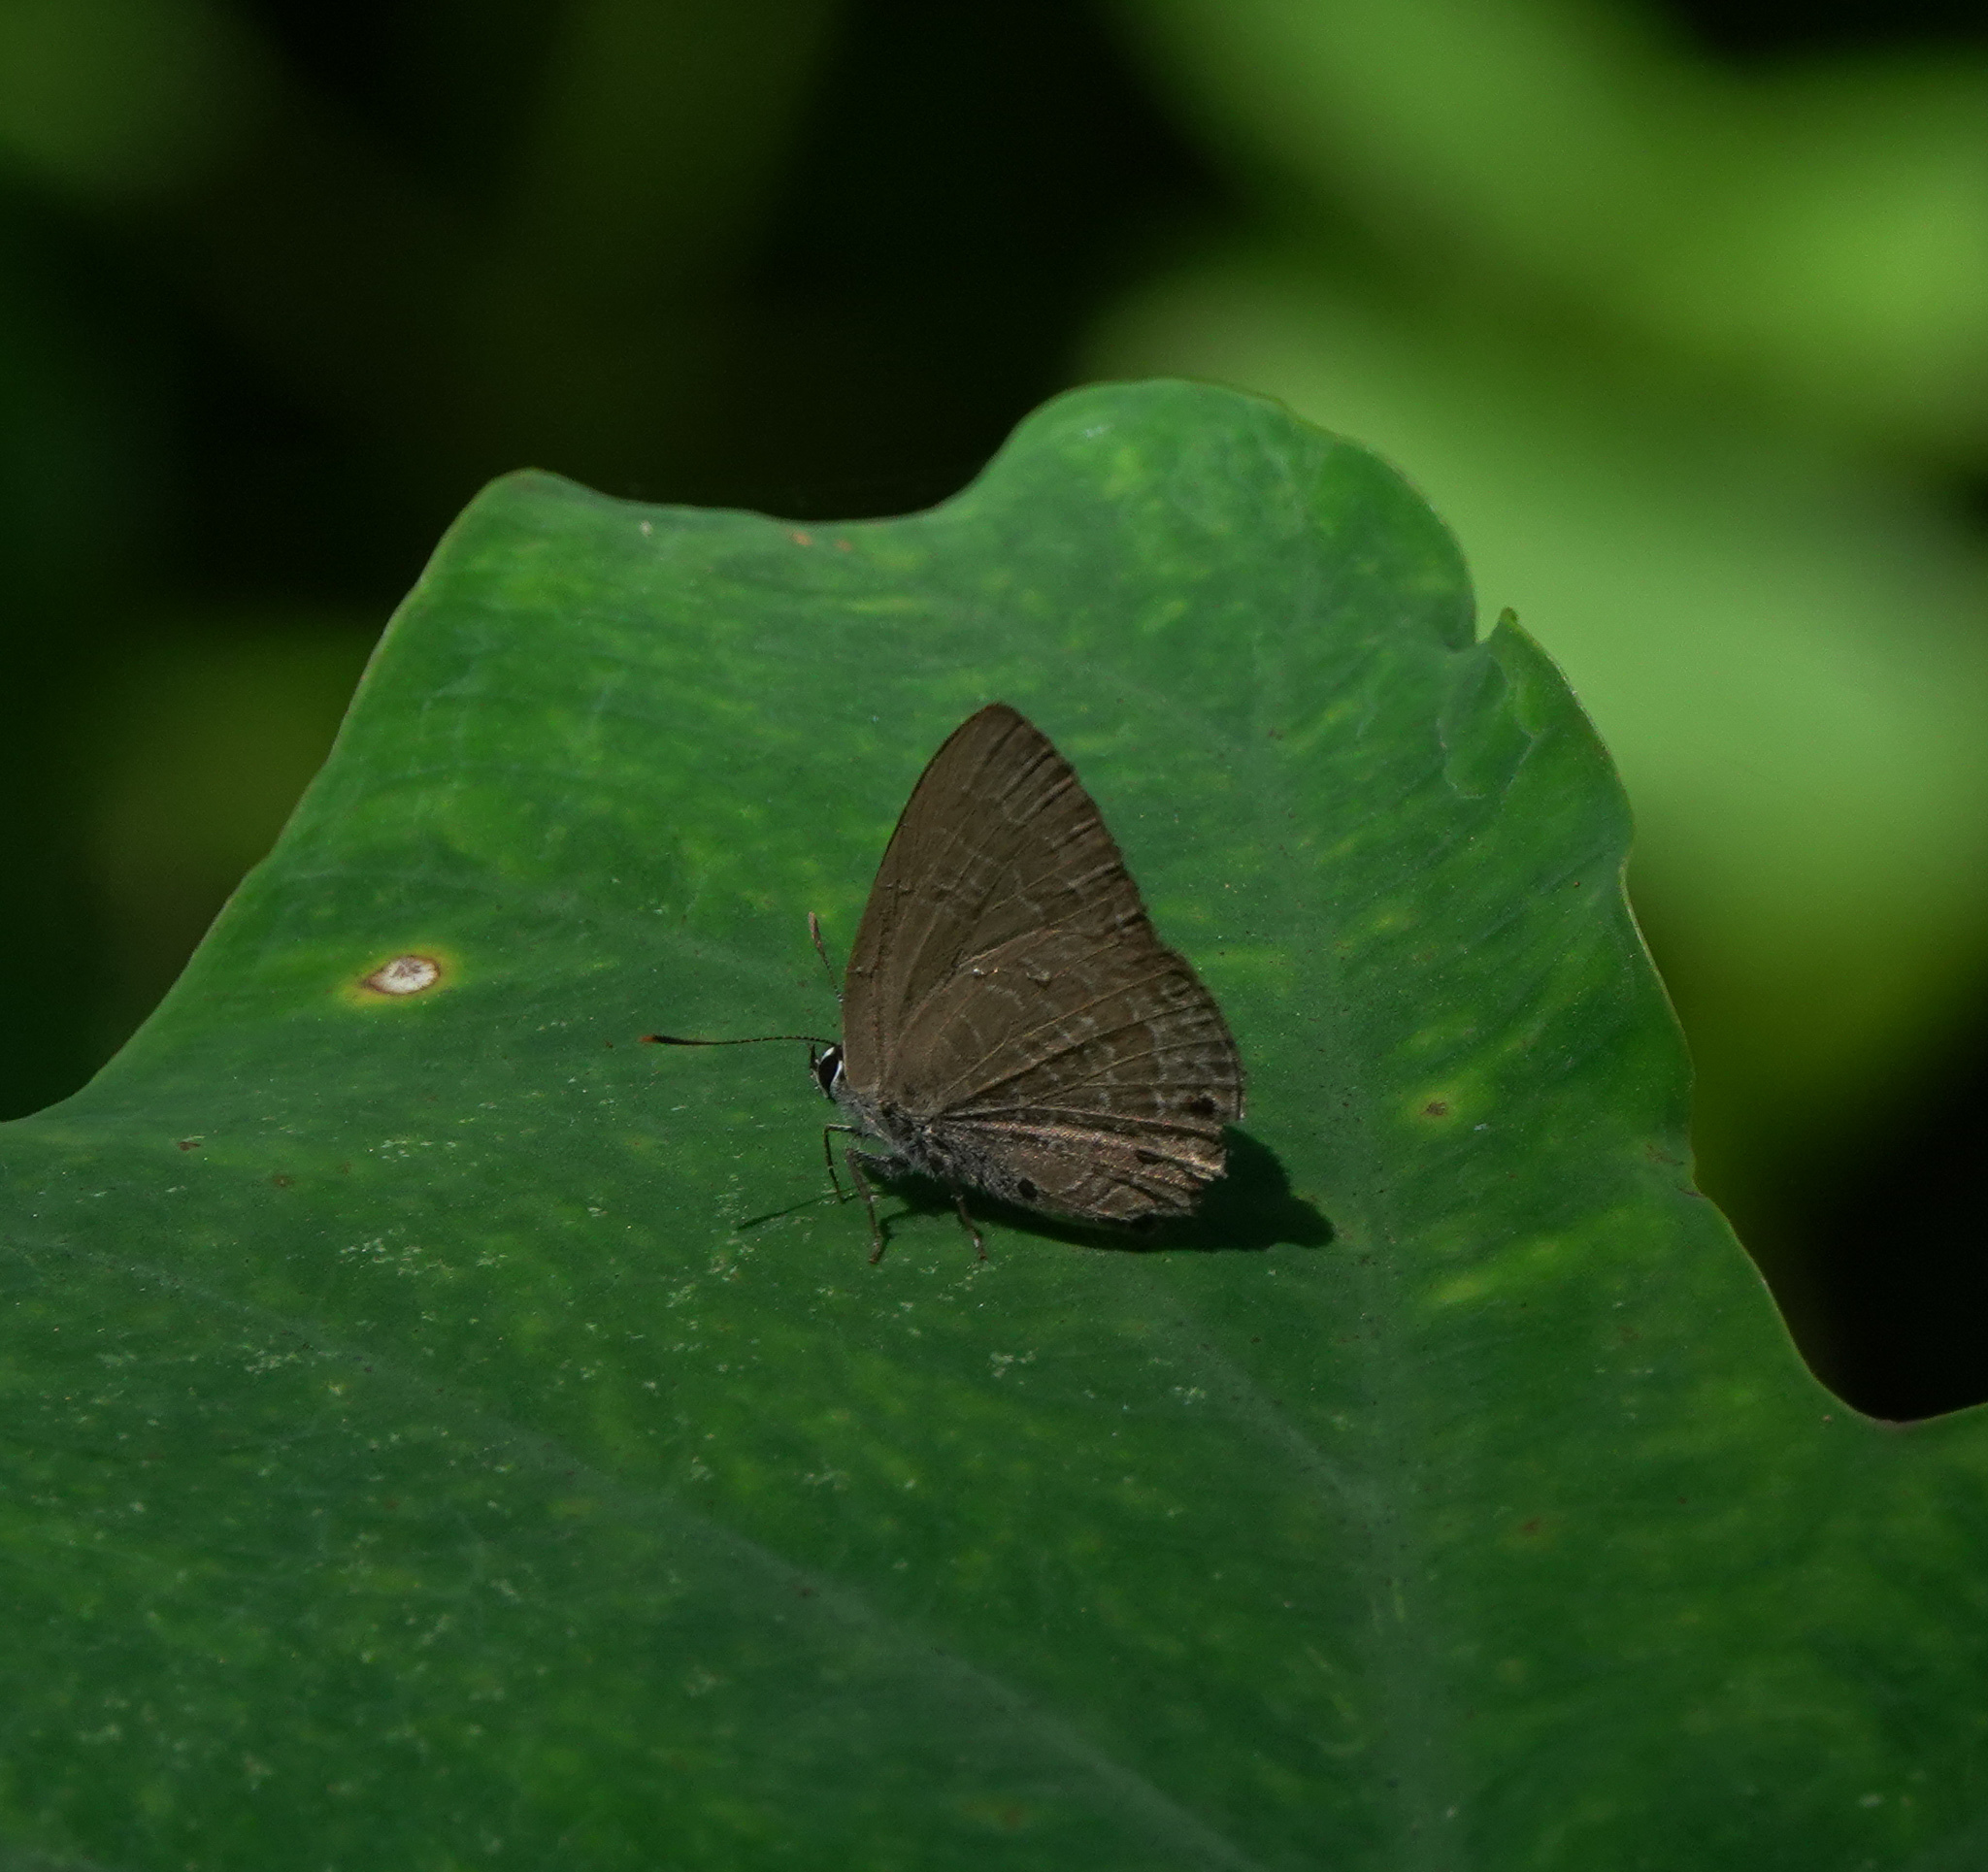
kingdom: Animalia
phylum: Arthropoda
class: Insecta
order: Lepidoptera
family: Lycaenidae
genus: Anthene
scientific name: Anthene emolus
